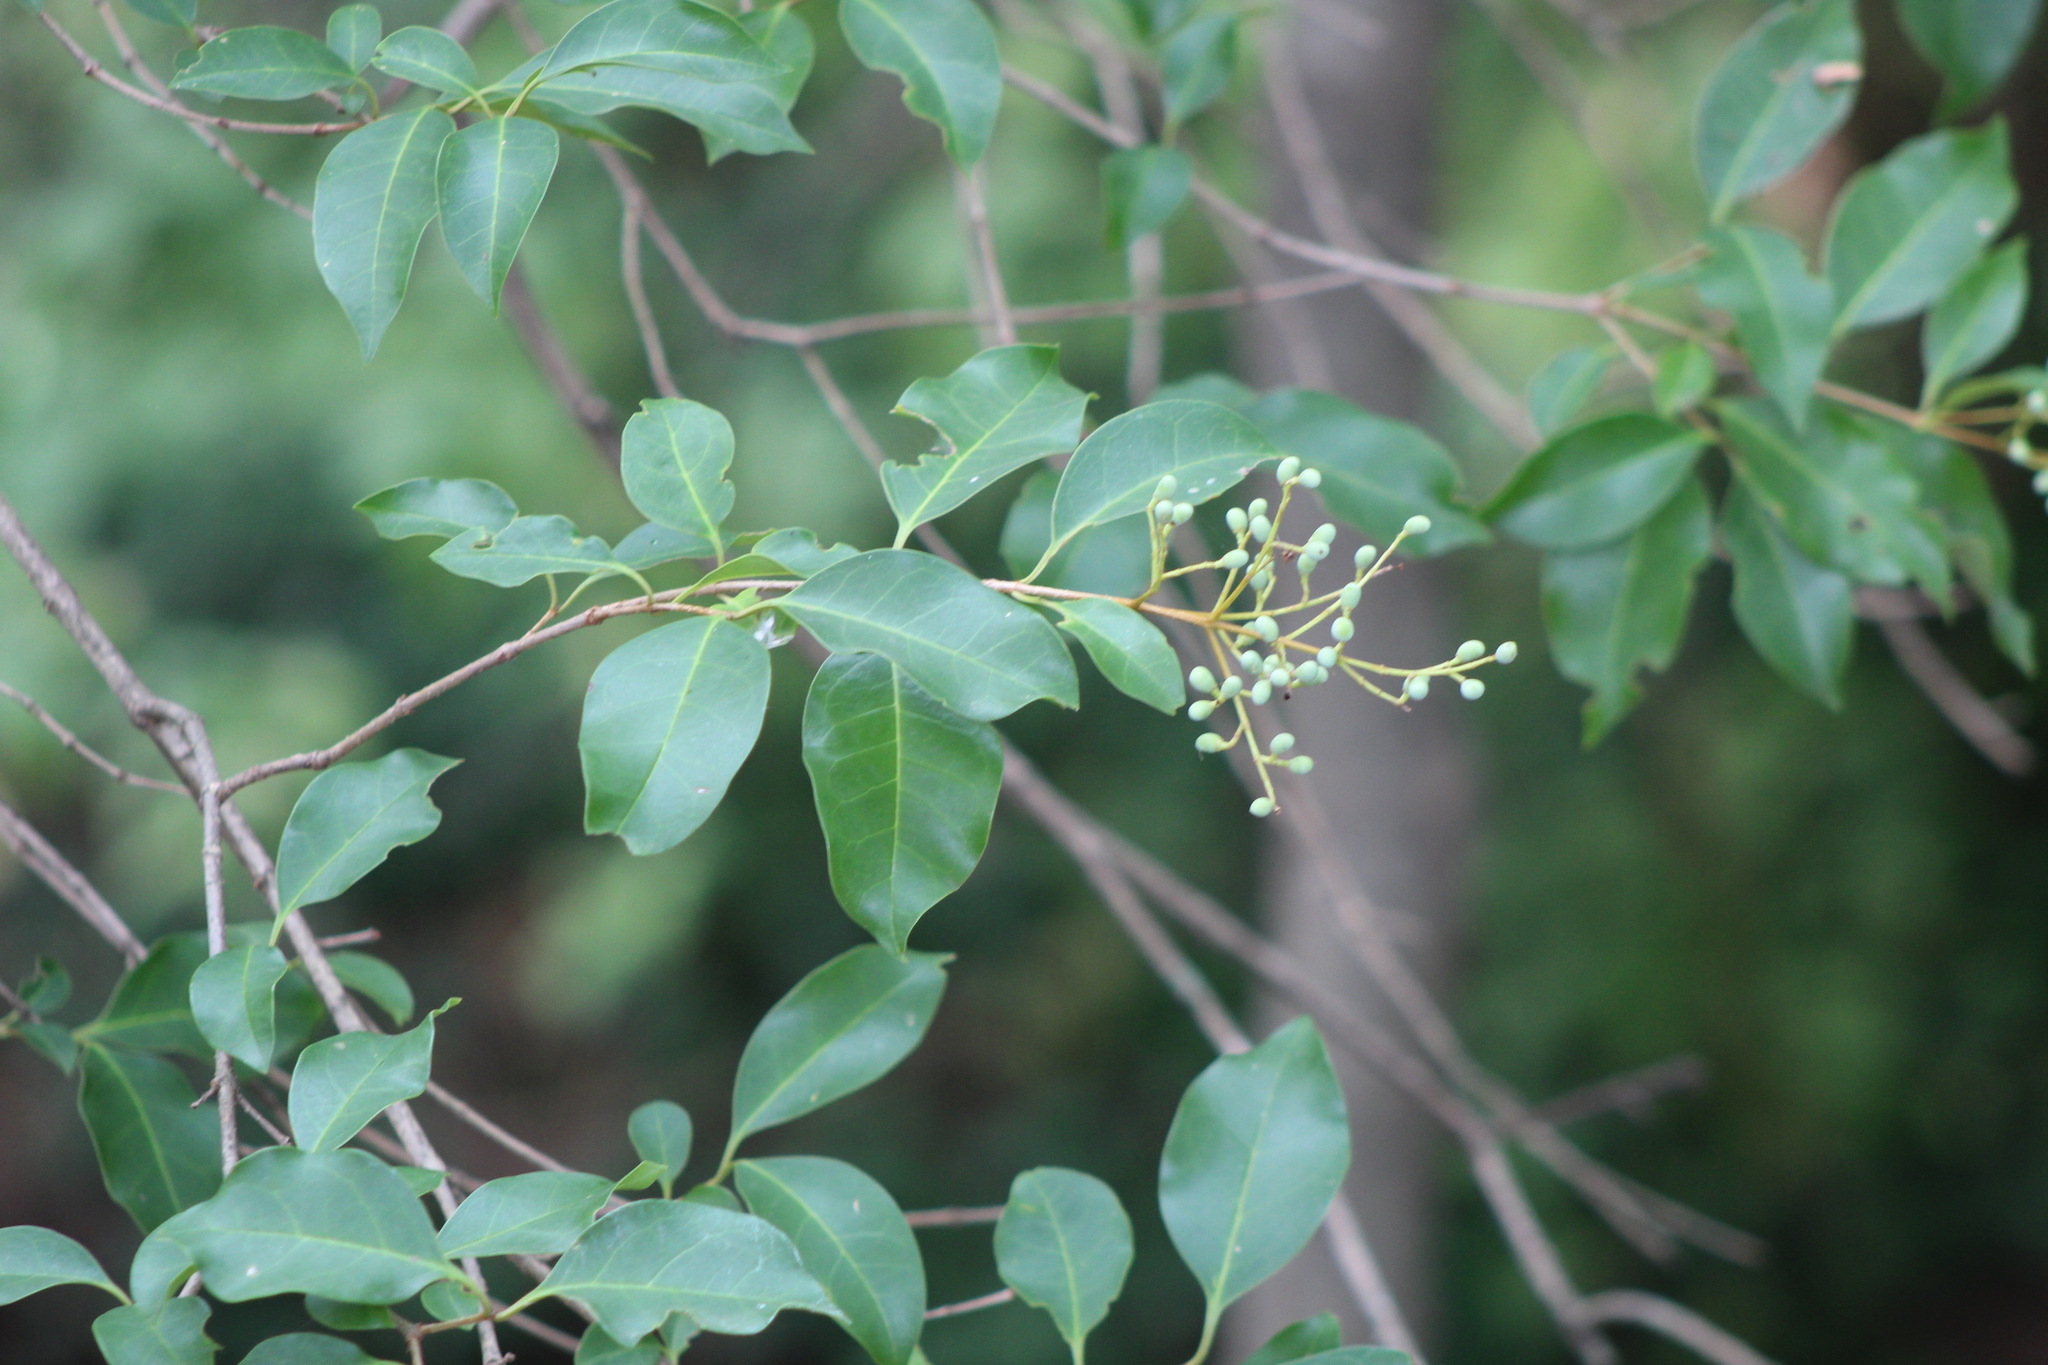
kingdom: Plantae
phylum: Tracheophyta
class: Magnoliopsida
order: Lamiales
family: Oleaceae
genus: Ligustrum
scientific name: Ligustrum lucidum
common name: Glossy privet
